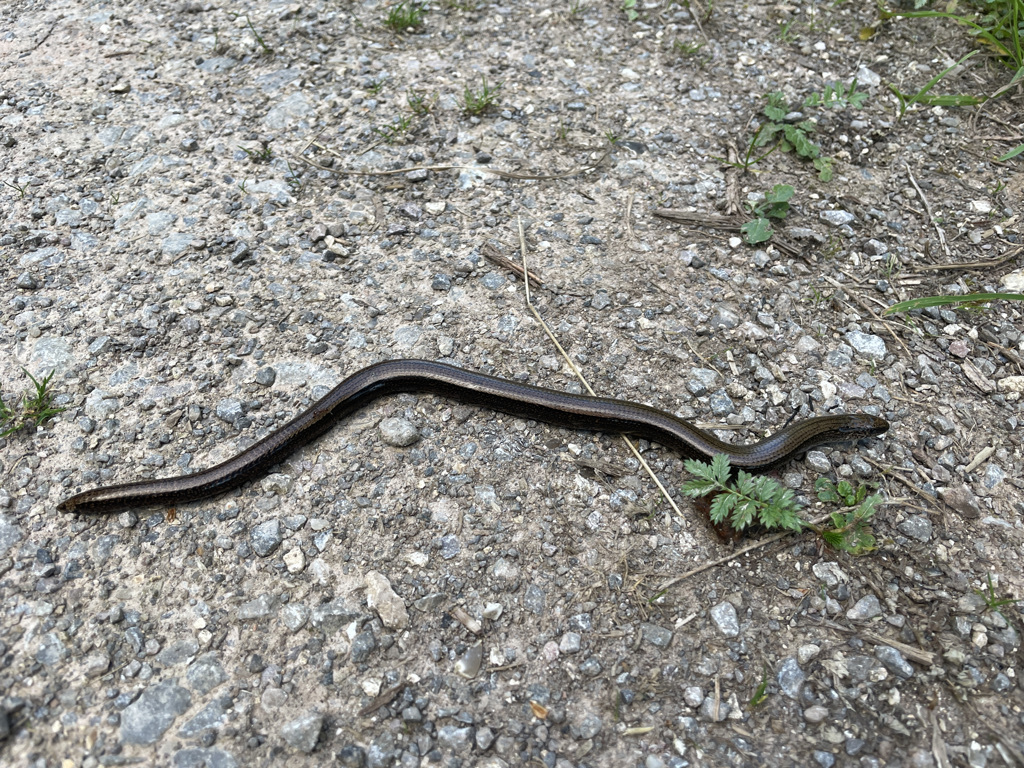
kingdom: Animalia
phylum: Chordata
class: Squamata
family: Anguidae
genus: Anguis
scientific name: Anguis fragilis
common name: Slow worm
